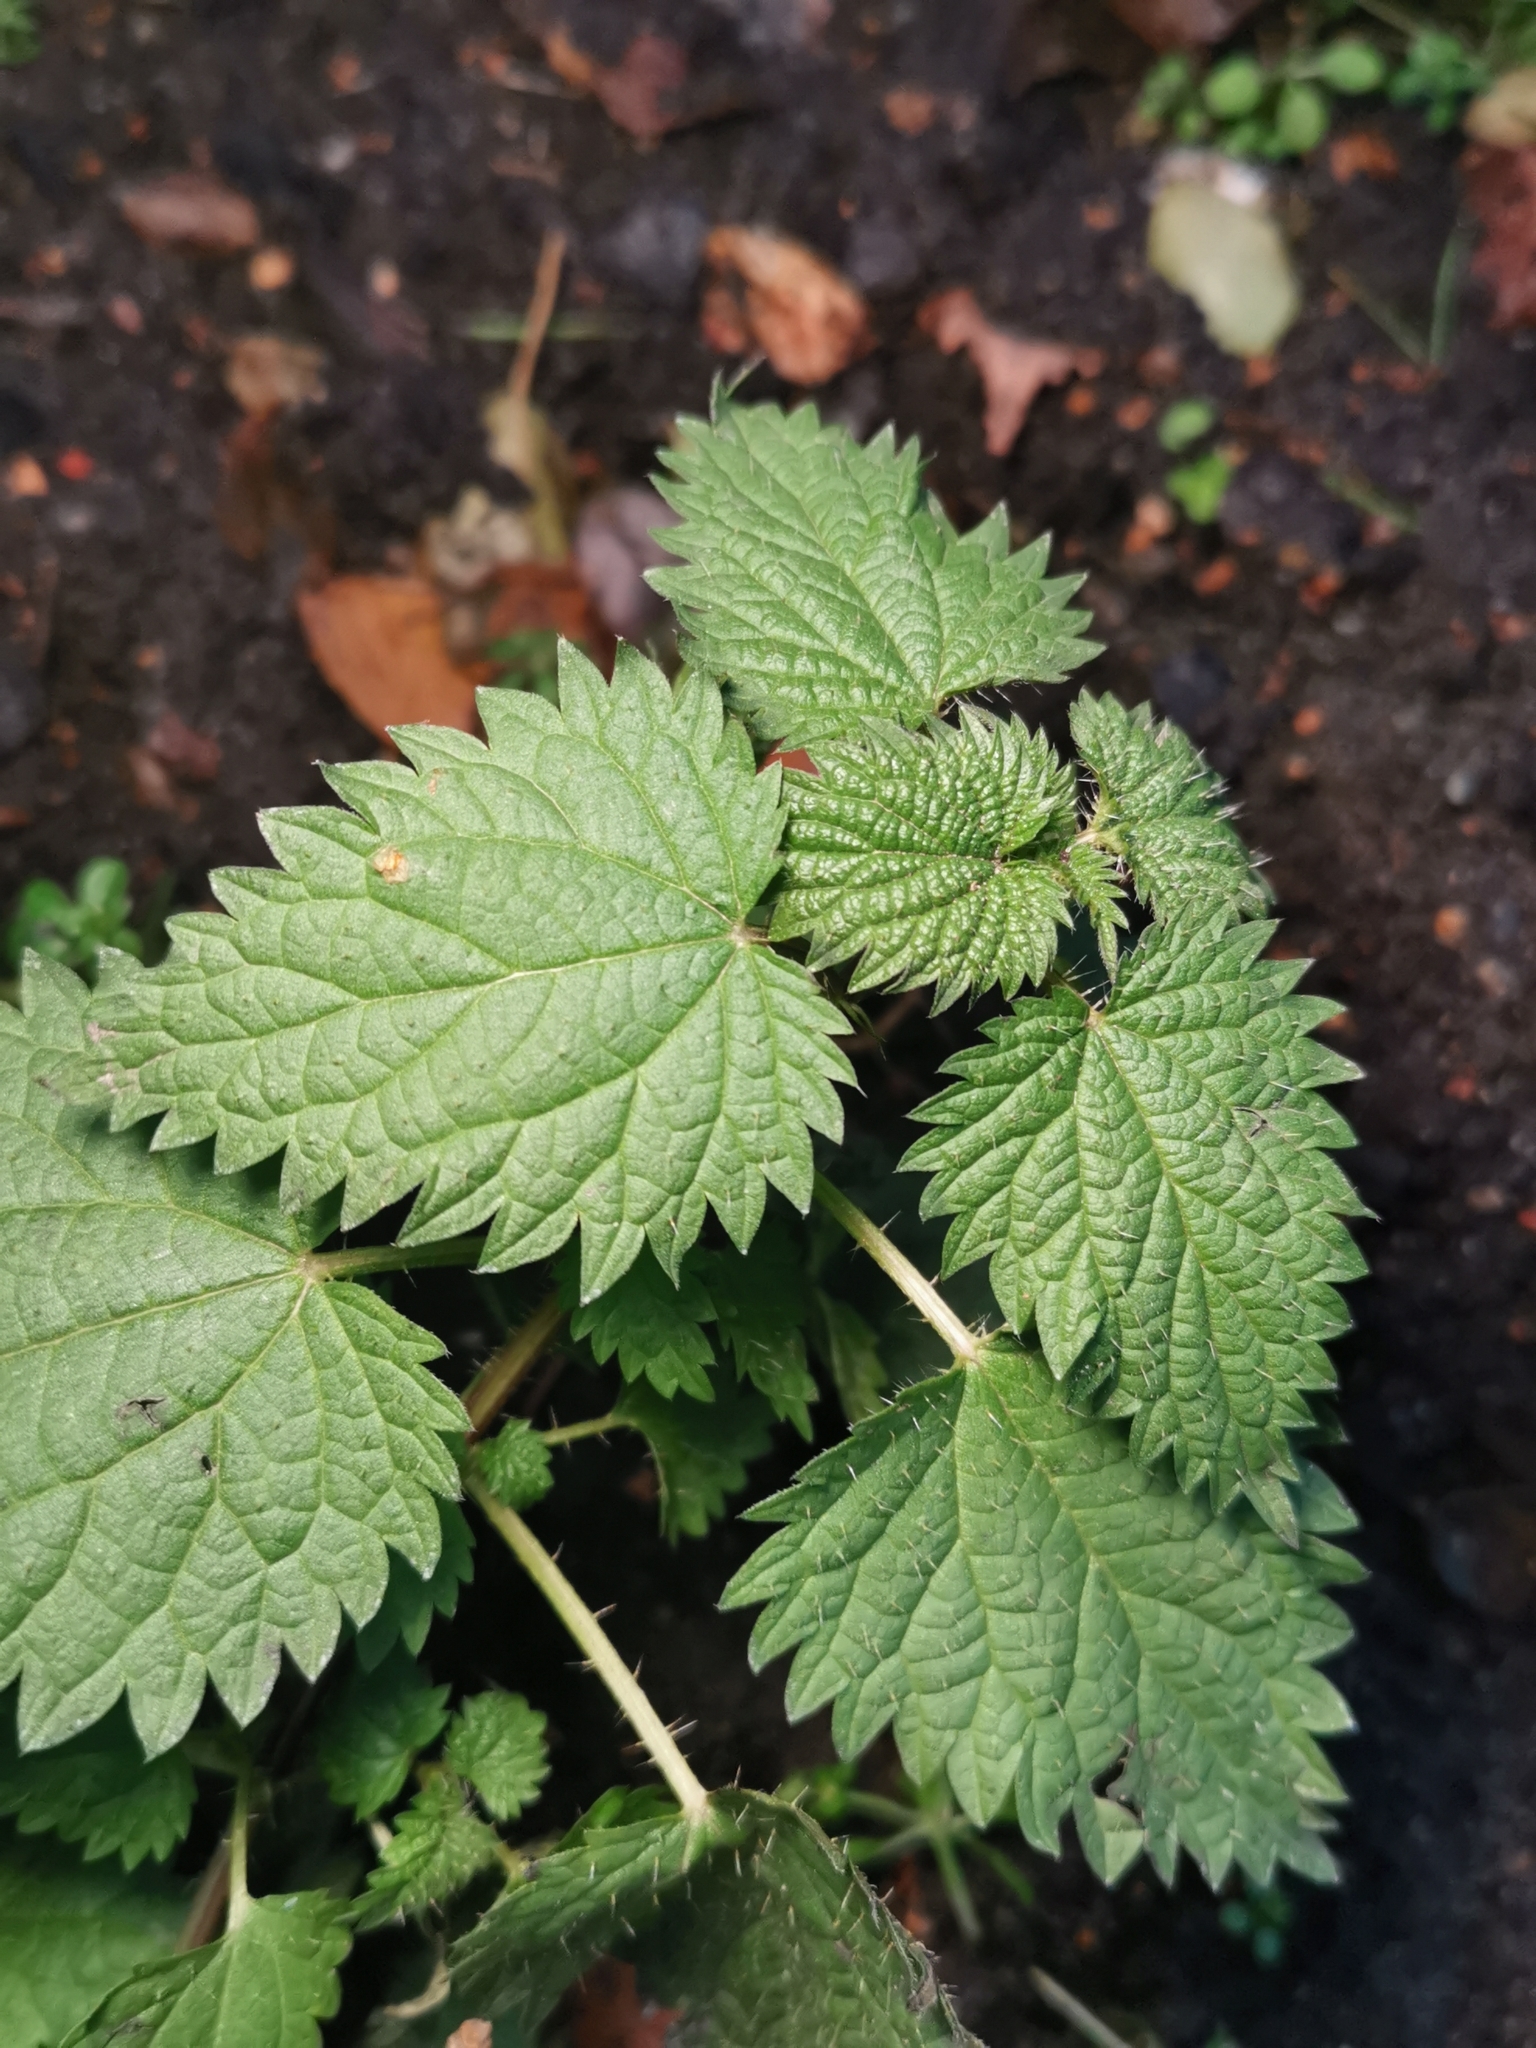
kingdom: Plantae
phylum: Tracheophyta
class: Magnoliopsida
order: Rosales
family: Urticaceae
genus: Urtica
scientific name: Urtica dioica
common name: Common nettle
